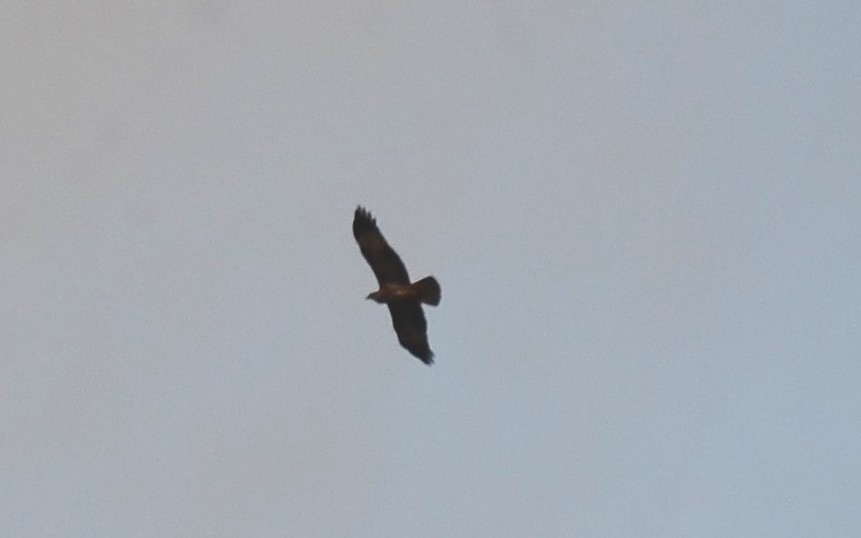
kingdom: Animalia
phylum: Chordata
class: Aves
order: Accipitriformes
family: Accipitridae
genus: Haliastur
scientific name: Haliastur indus
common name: Brahminy kite
